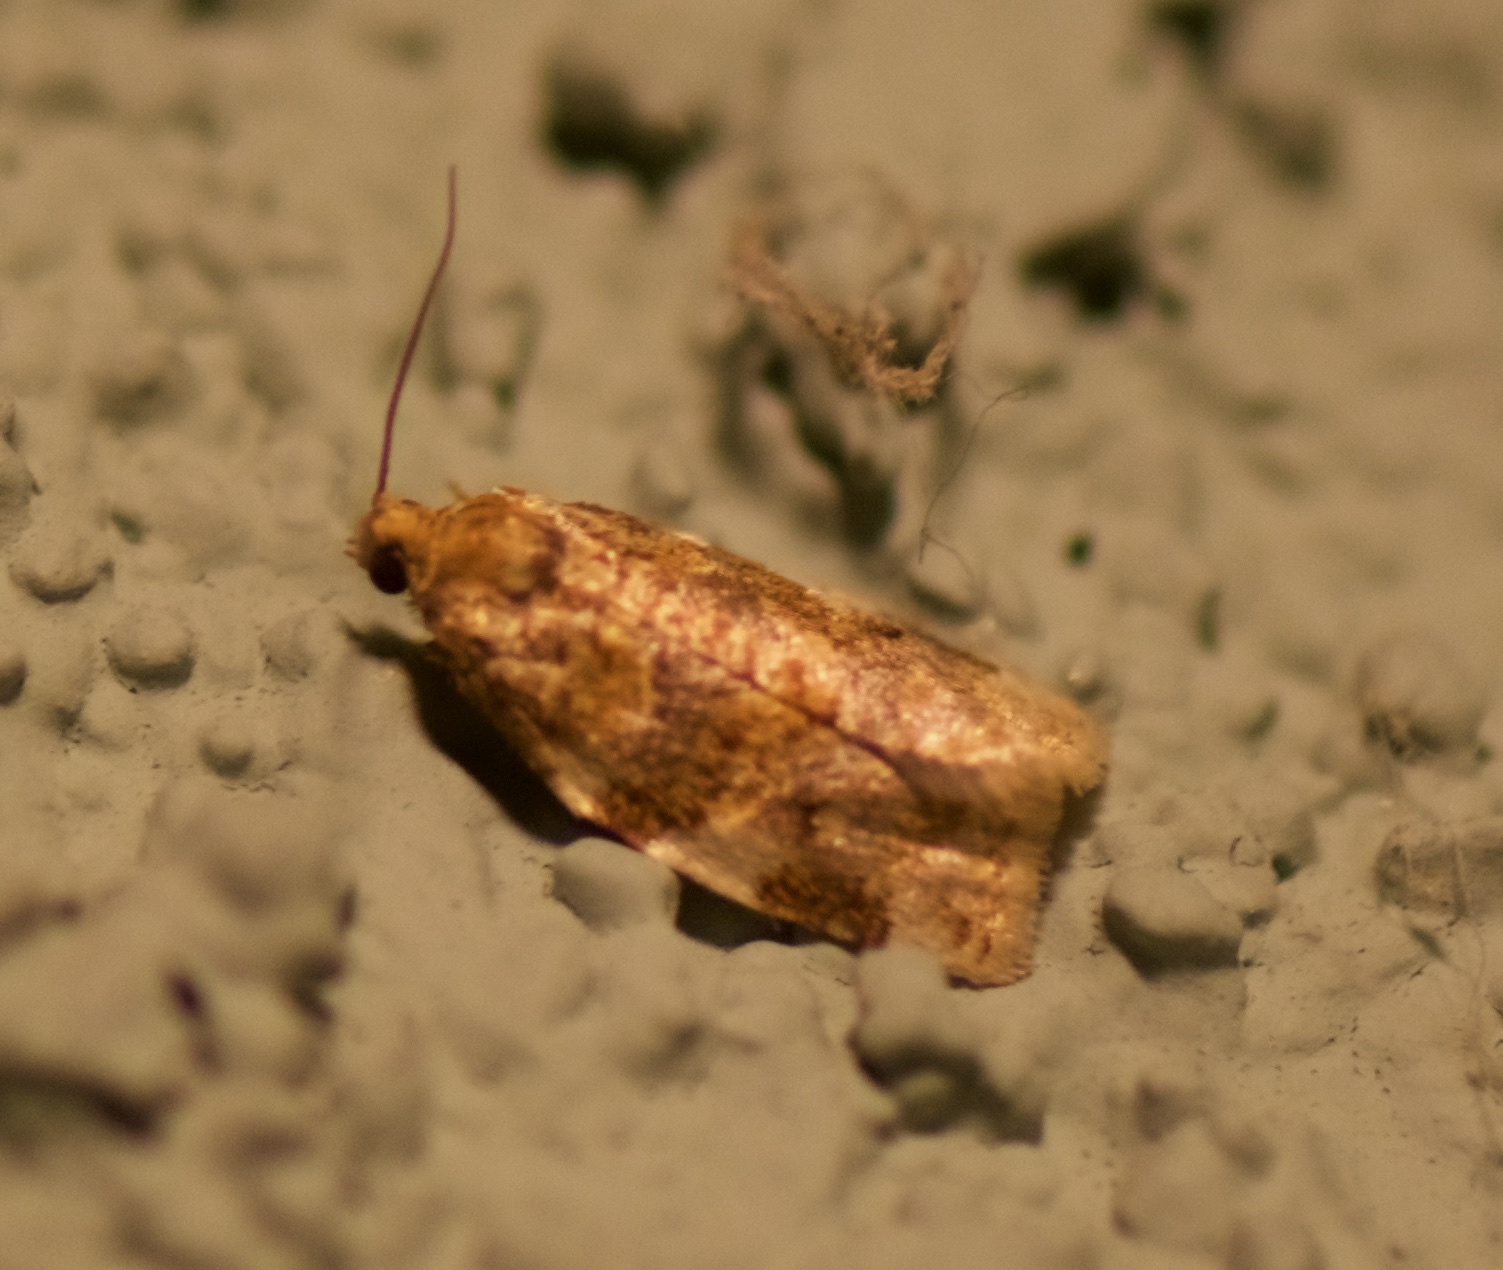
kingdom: Animalia
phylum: Arthropoda
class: Insecta
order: Lepidoptera
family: Tortricidae
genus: Archips
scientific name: Archips argyrospila
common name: Fruit-tree leafroller moth
